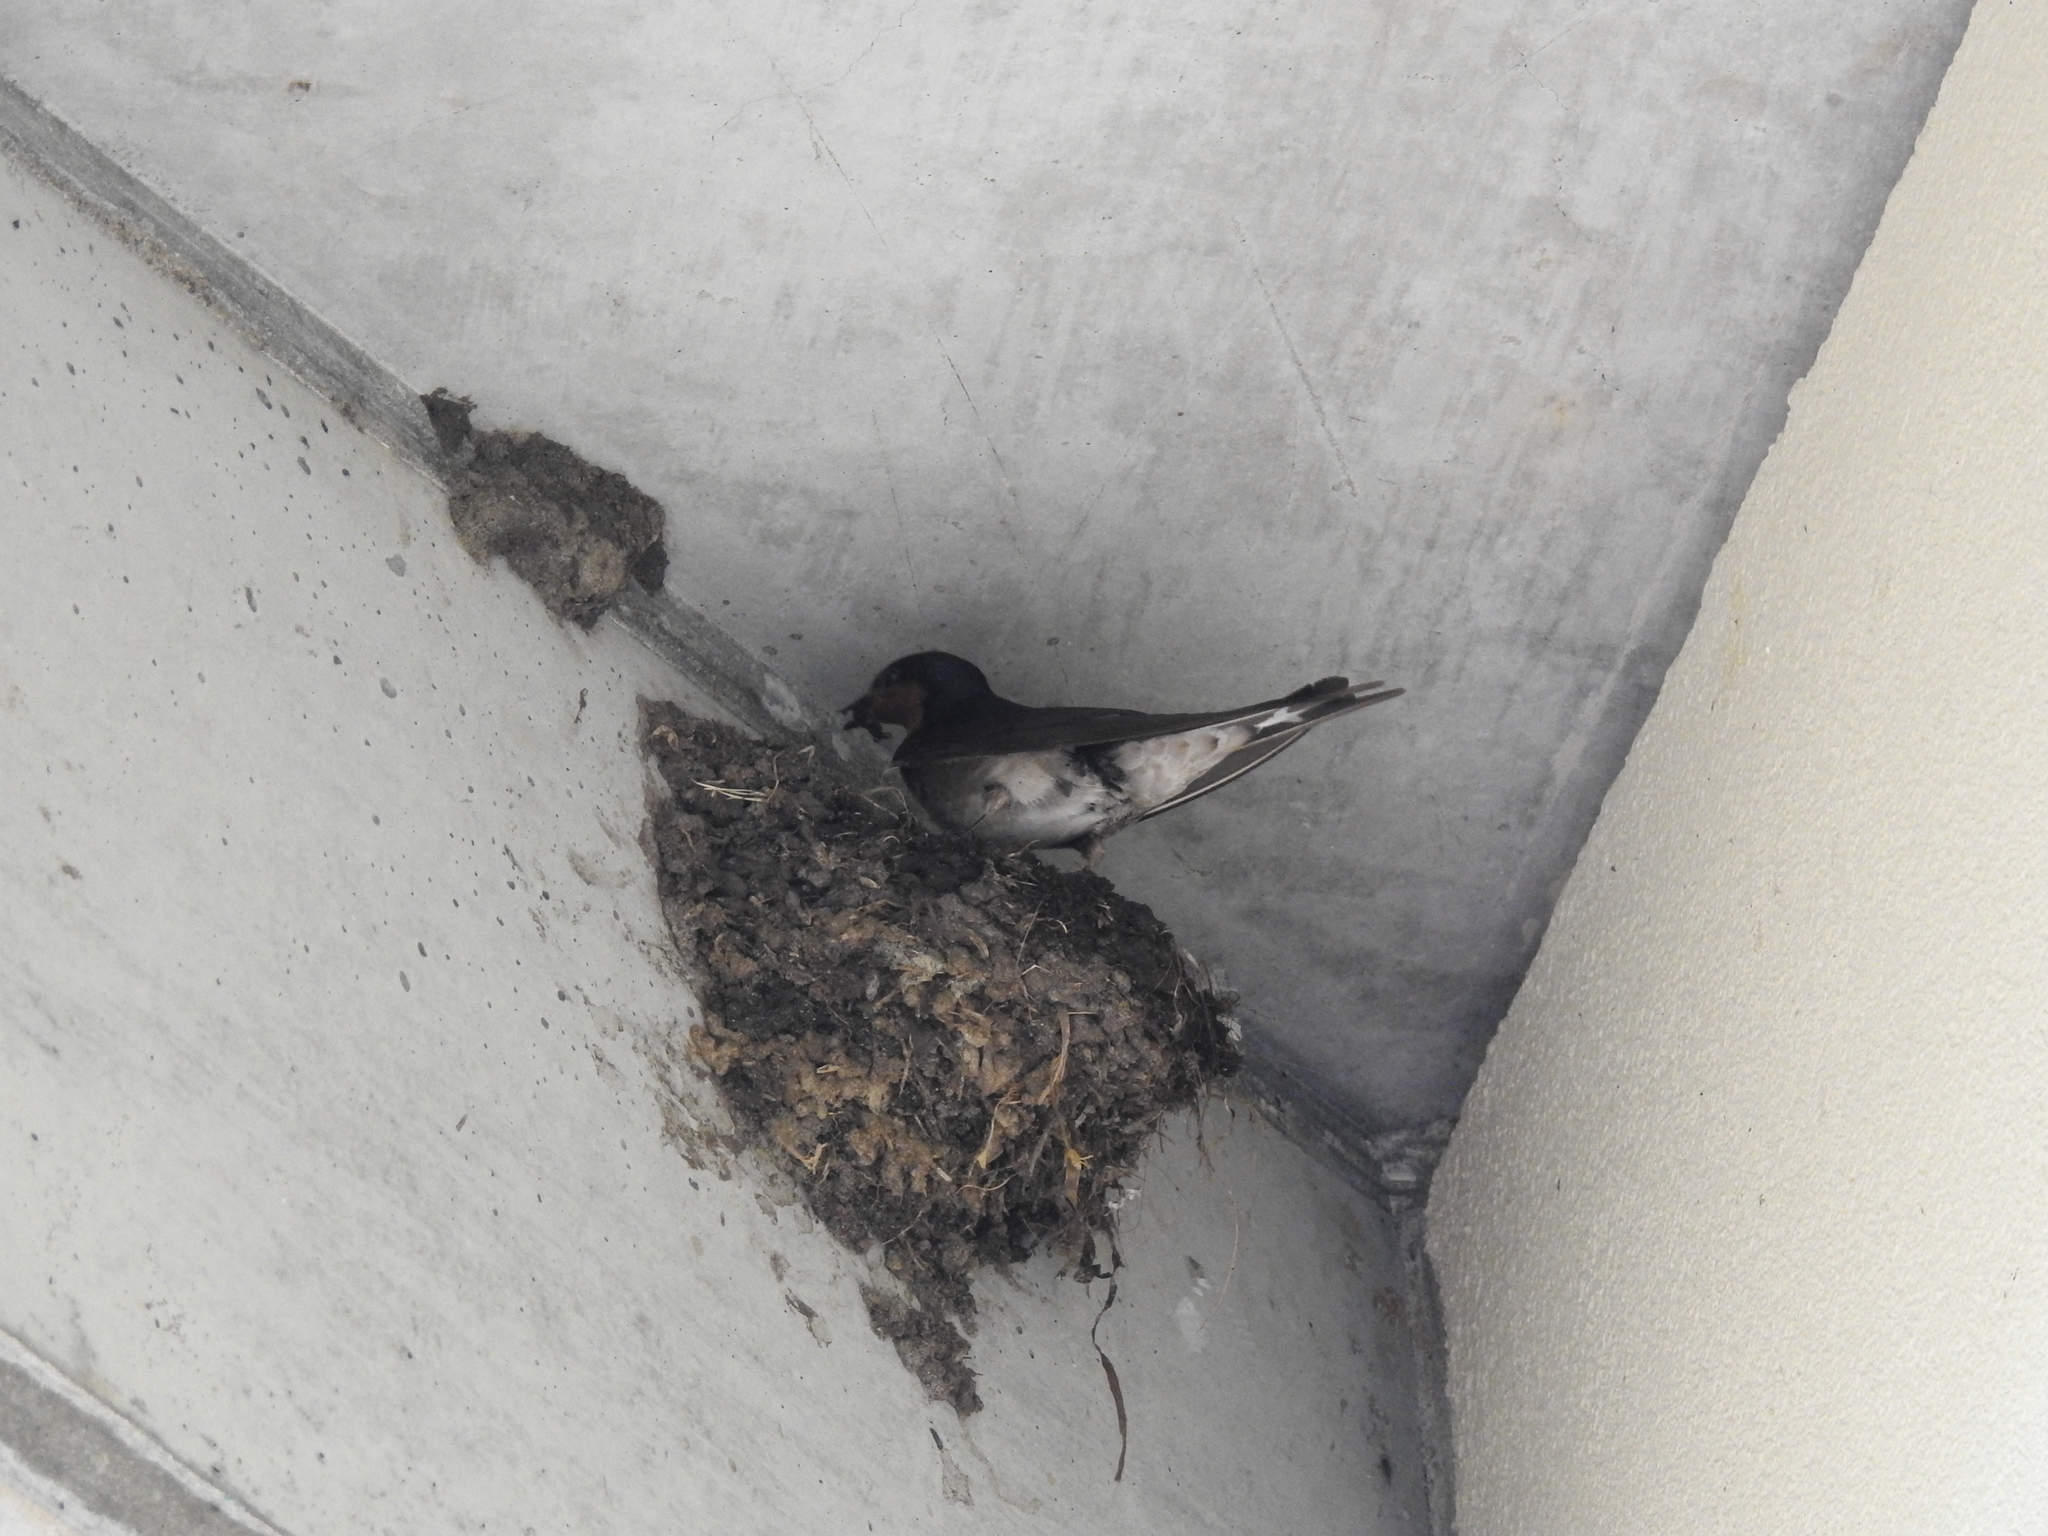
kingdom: Animalia
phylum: Chordata
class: Aves
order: Passeriformes
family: Hirundinidae
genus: Hirundo
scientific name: Hirundo neoxena
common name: Welcome swallow
